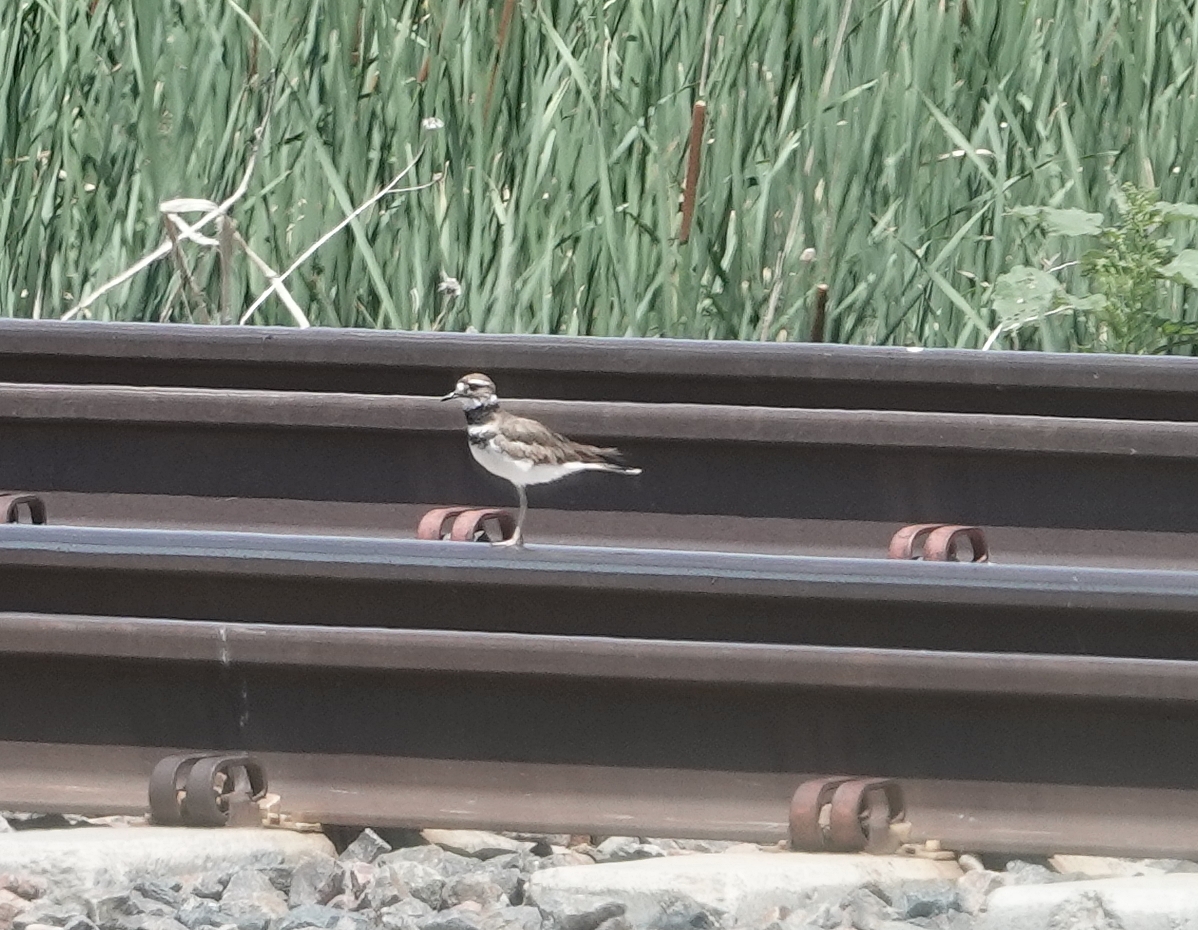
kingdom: Animalia
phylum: Chordata
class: Aves
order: Charadriiformes
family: Charadriidae
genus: Charadrius
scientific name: Charadrius vociferus
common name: Killdeer
